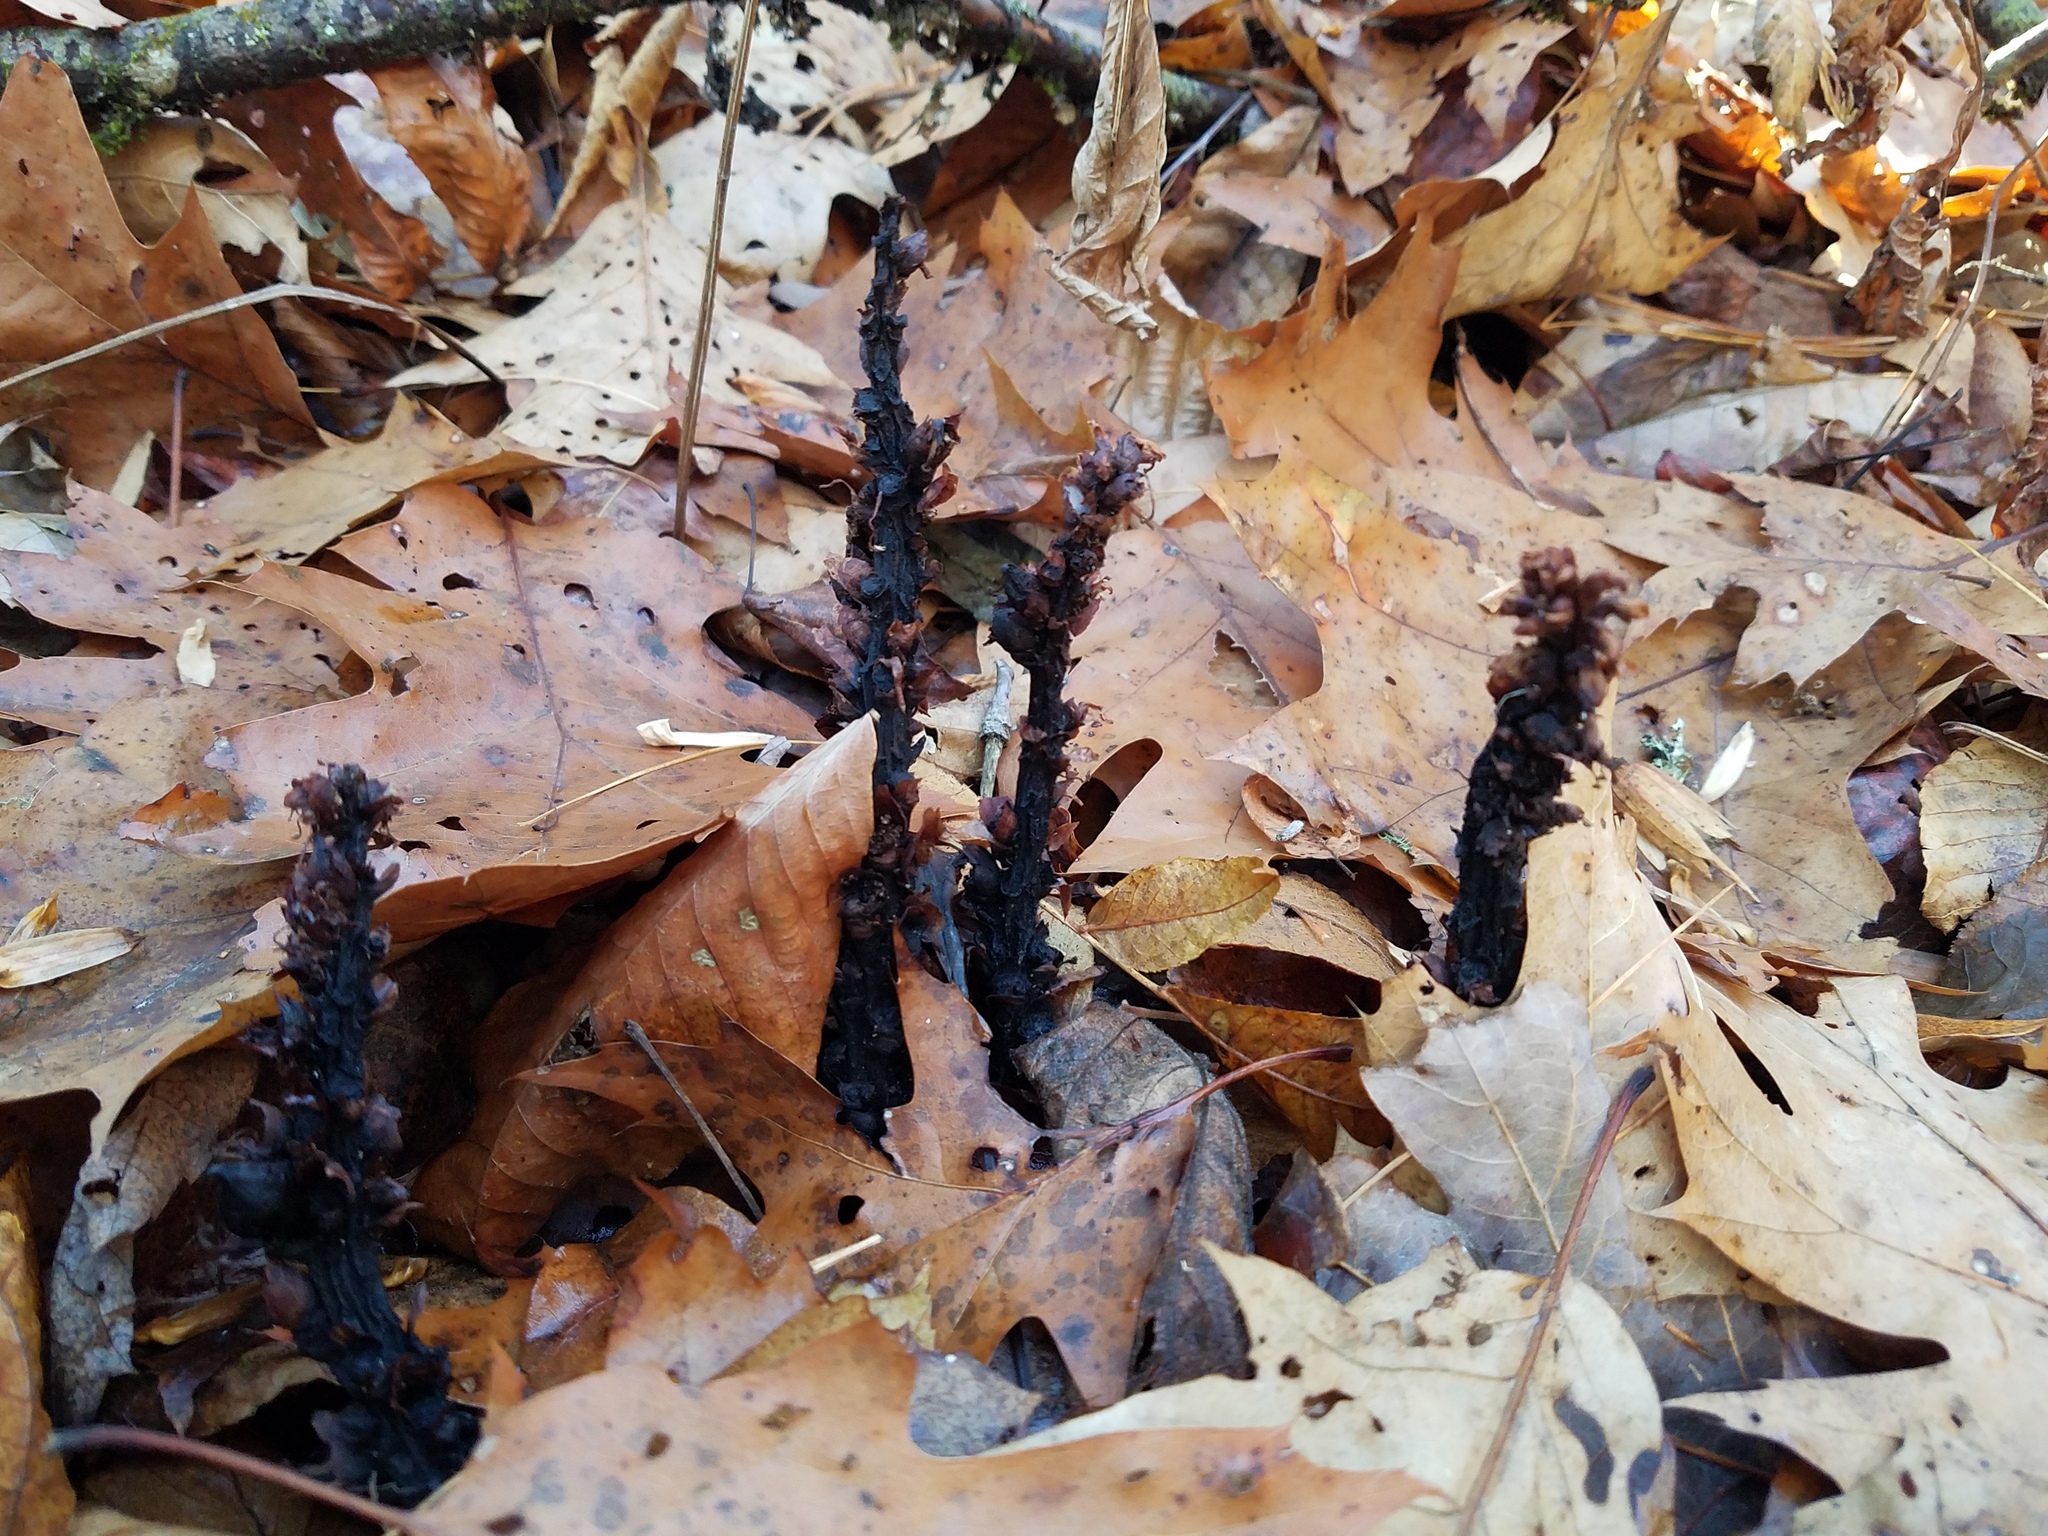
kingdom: Plantae
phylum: Tracheophyta
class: Magnoliopsida
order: Lamiales
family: Orobanchaceae
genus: Conopholis
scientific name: Conopholis americana
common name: American cancer-root
